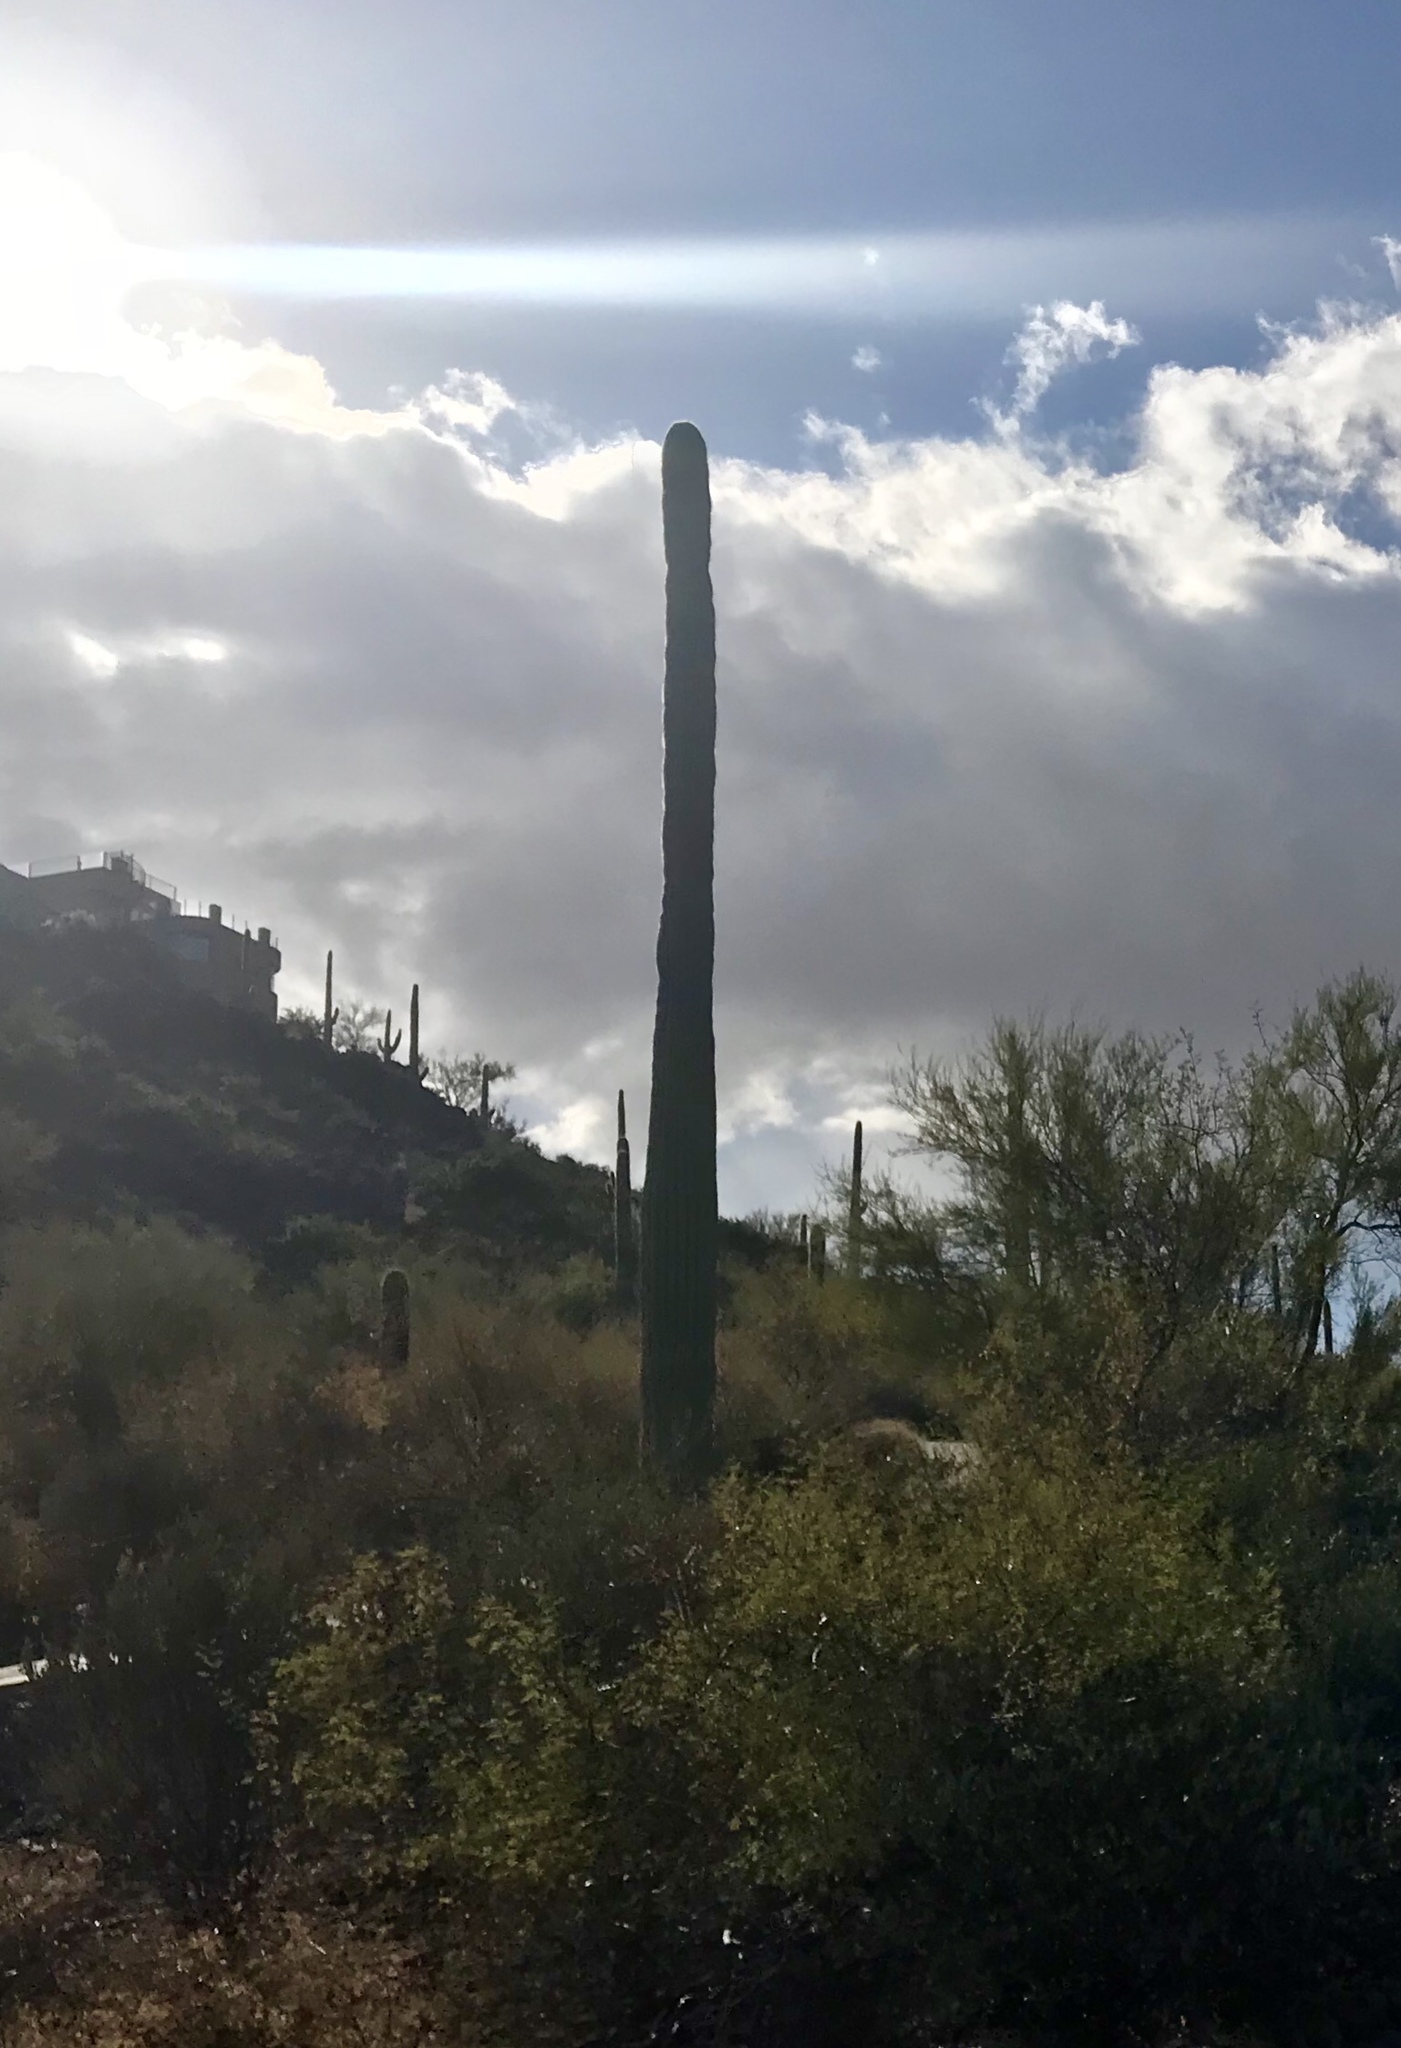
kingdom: Plantae
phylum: Tracheophyta
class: Magnoliopsida
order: Caryophyllales
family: Cactaceae
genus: Carnegiea
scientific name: Carnegiea gigantea
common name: Saguaro
